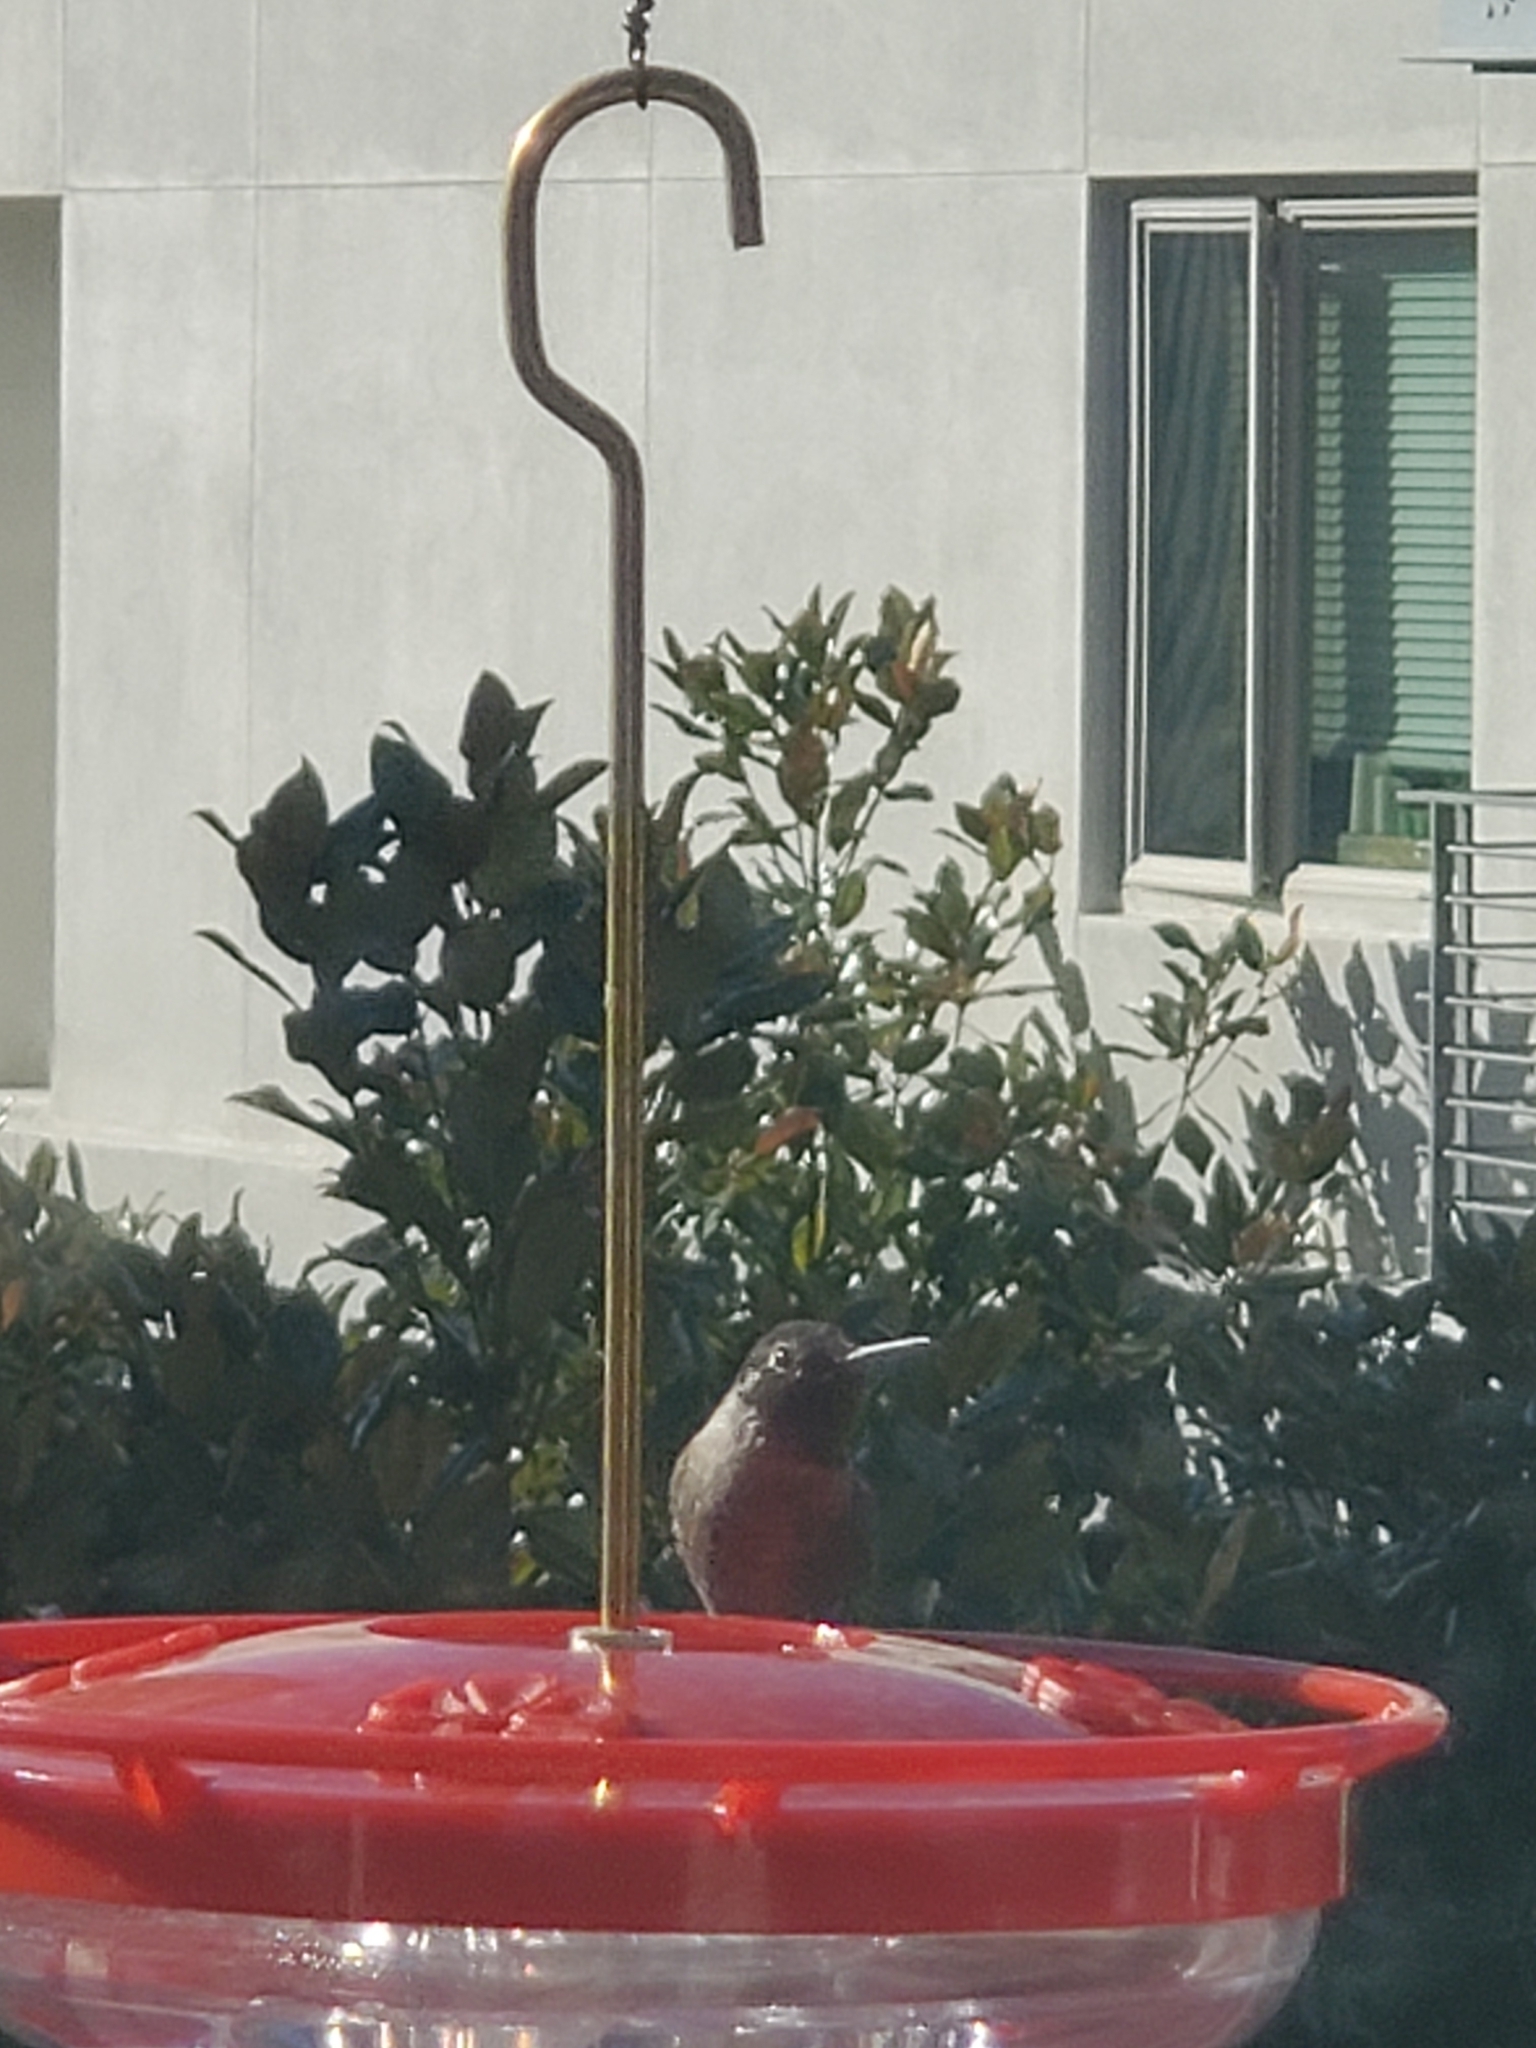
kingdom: Animalia
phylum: Chordata
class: Aves
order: Apodiformes
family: Trochilidae
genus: Calypte
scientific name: Calypte anna
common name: Anna's hummingbird
